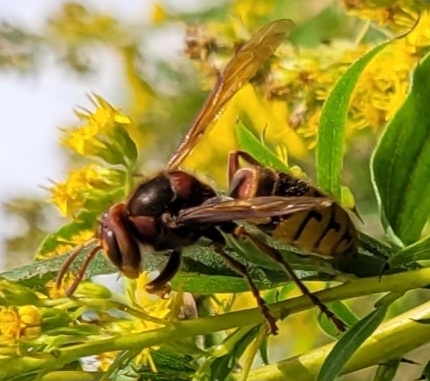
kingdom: Animalia
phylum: Arthropoda
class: Insecta
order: Hymenoptera
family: Vespidae
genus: Vespa
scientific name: Vespa crabro
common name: Hornet
